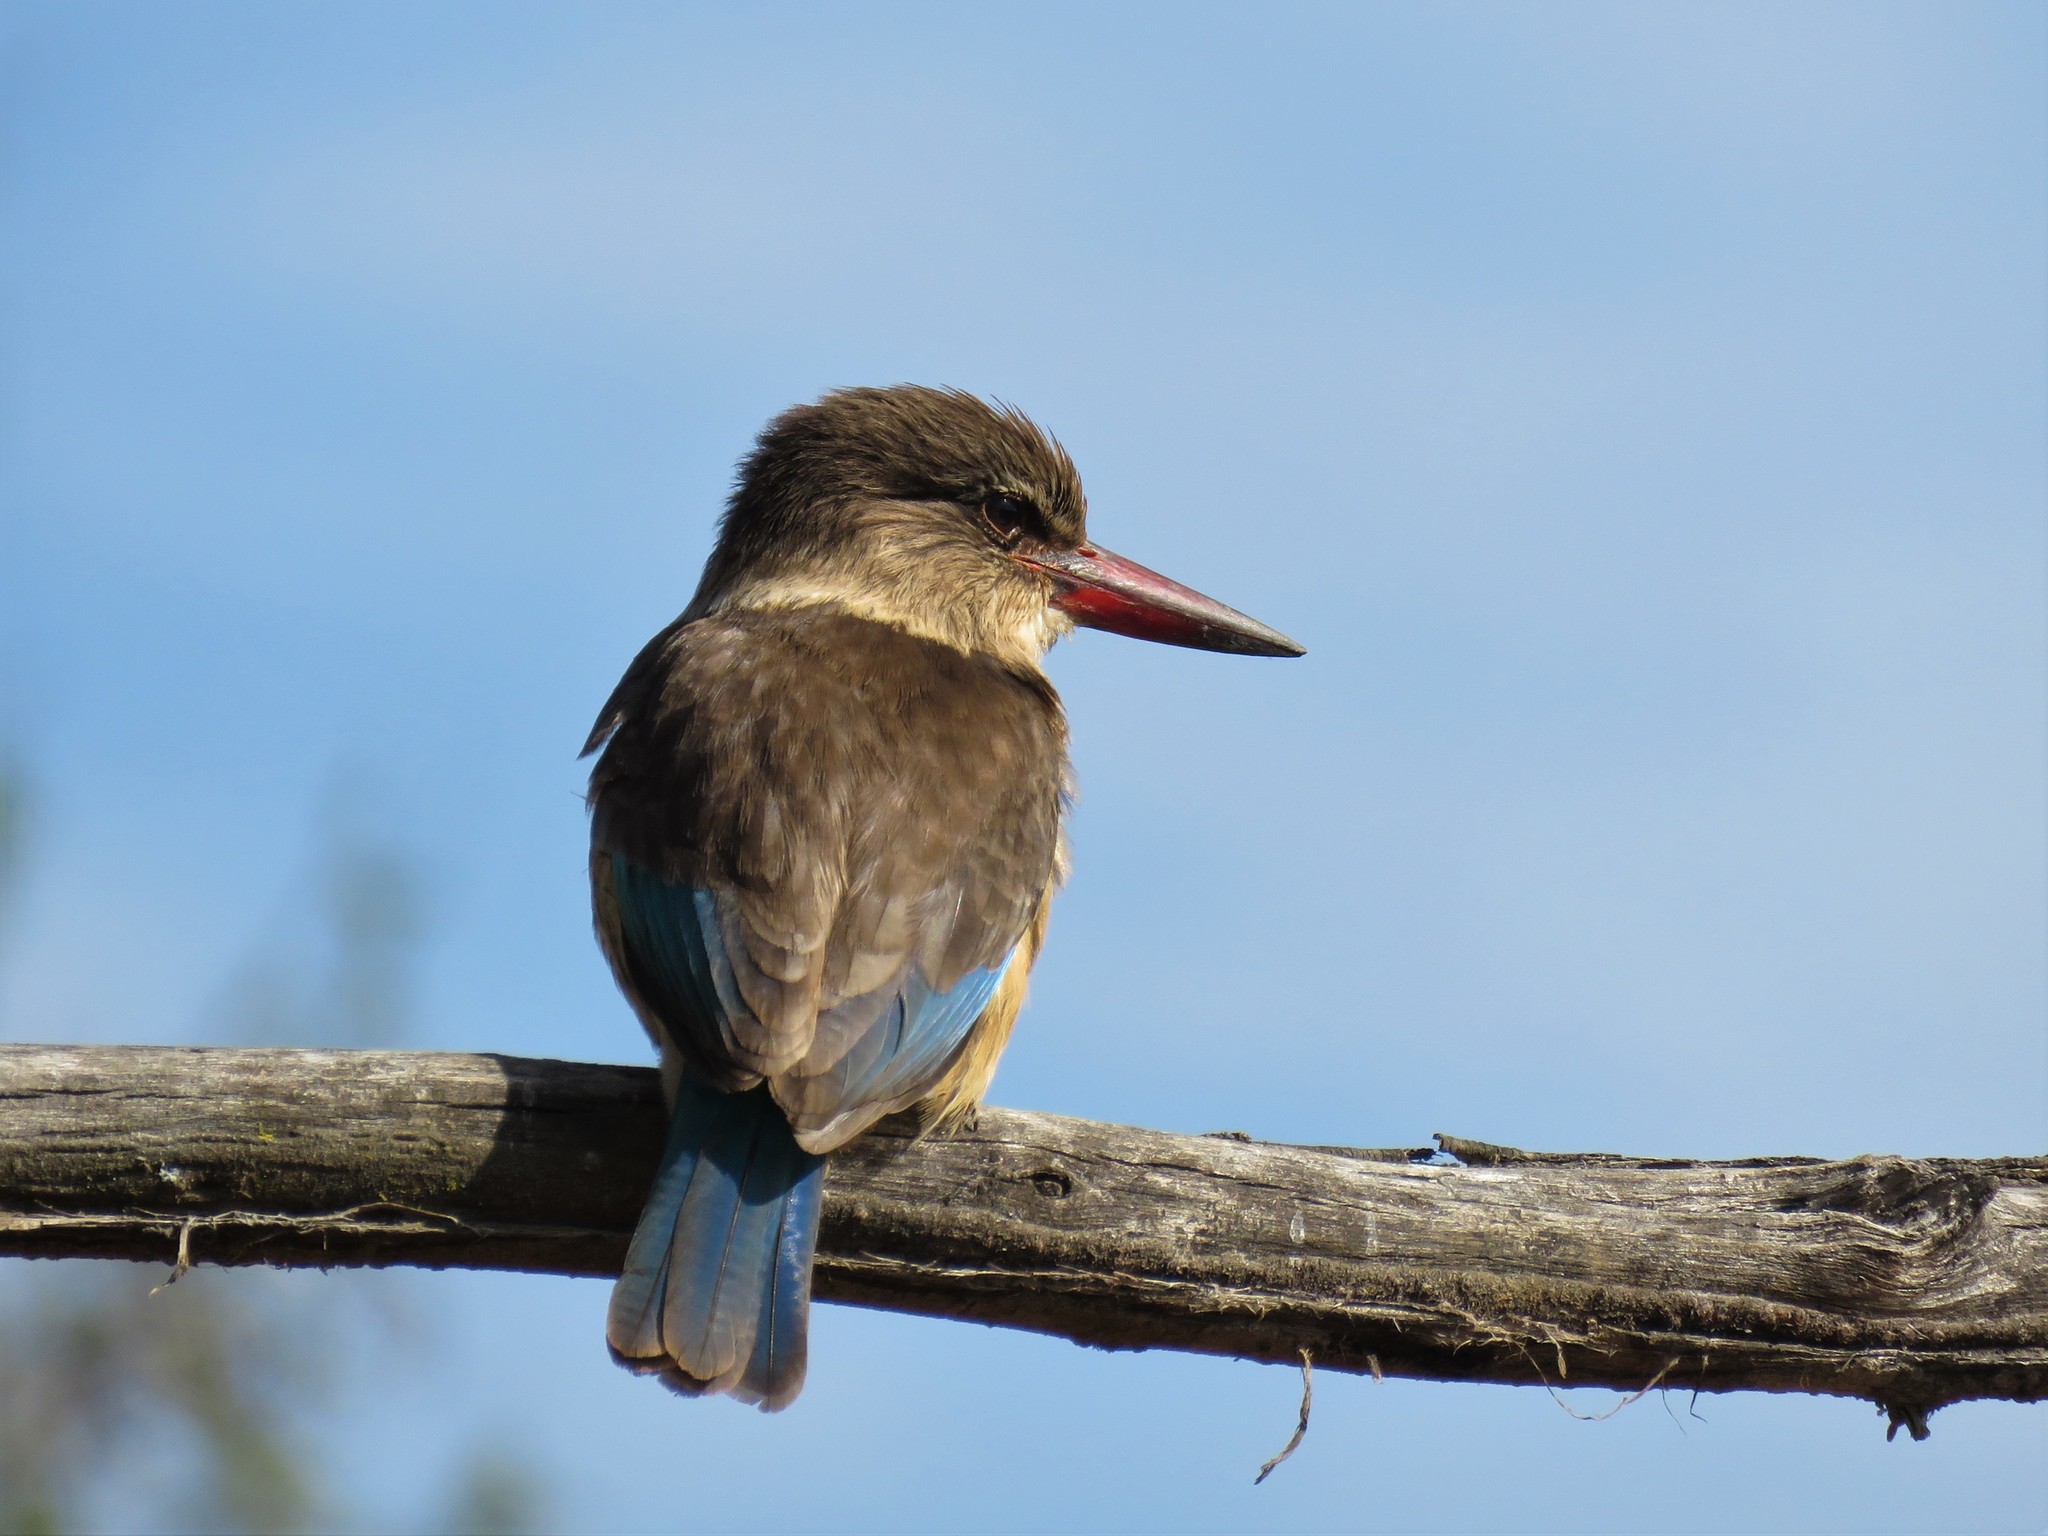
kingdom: Animalia
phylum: Chordata
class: Aves
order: Coraciiformes
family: Alcedinidae
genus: Halcyon
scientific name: Halcyon albiventris
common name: Brown-hooded kingfisher
